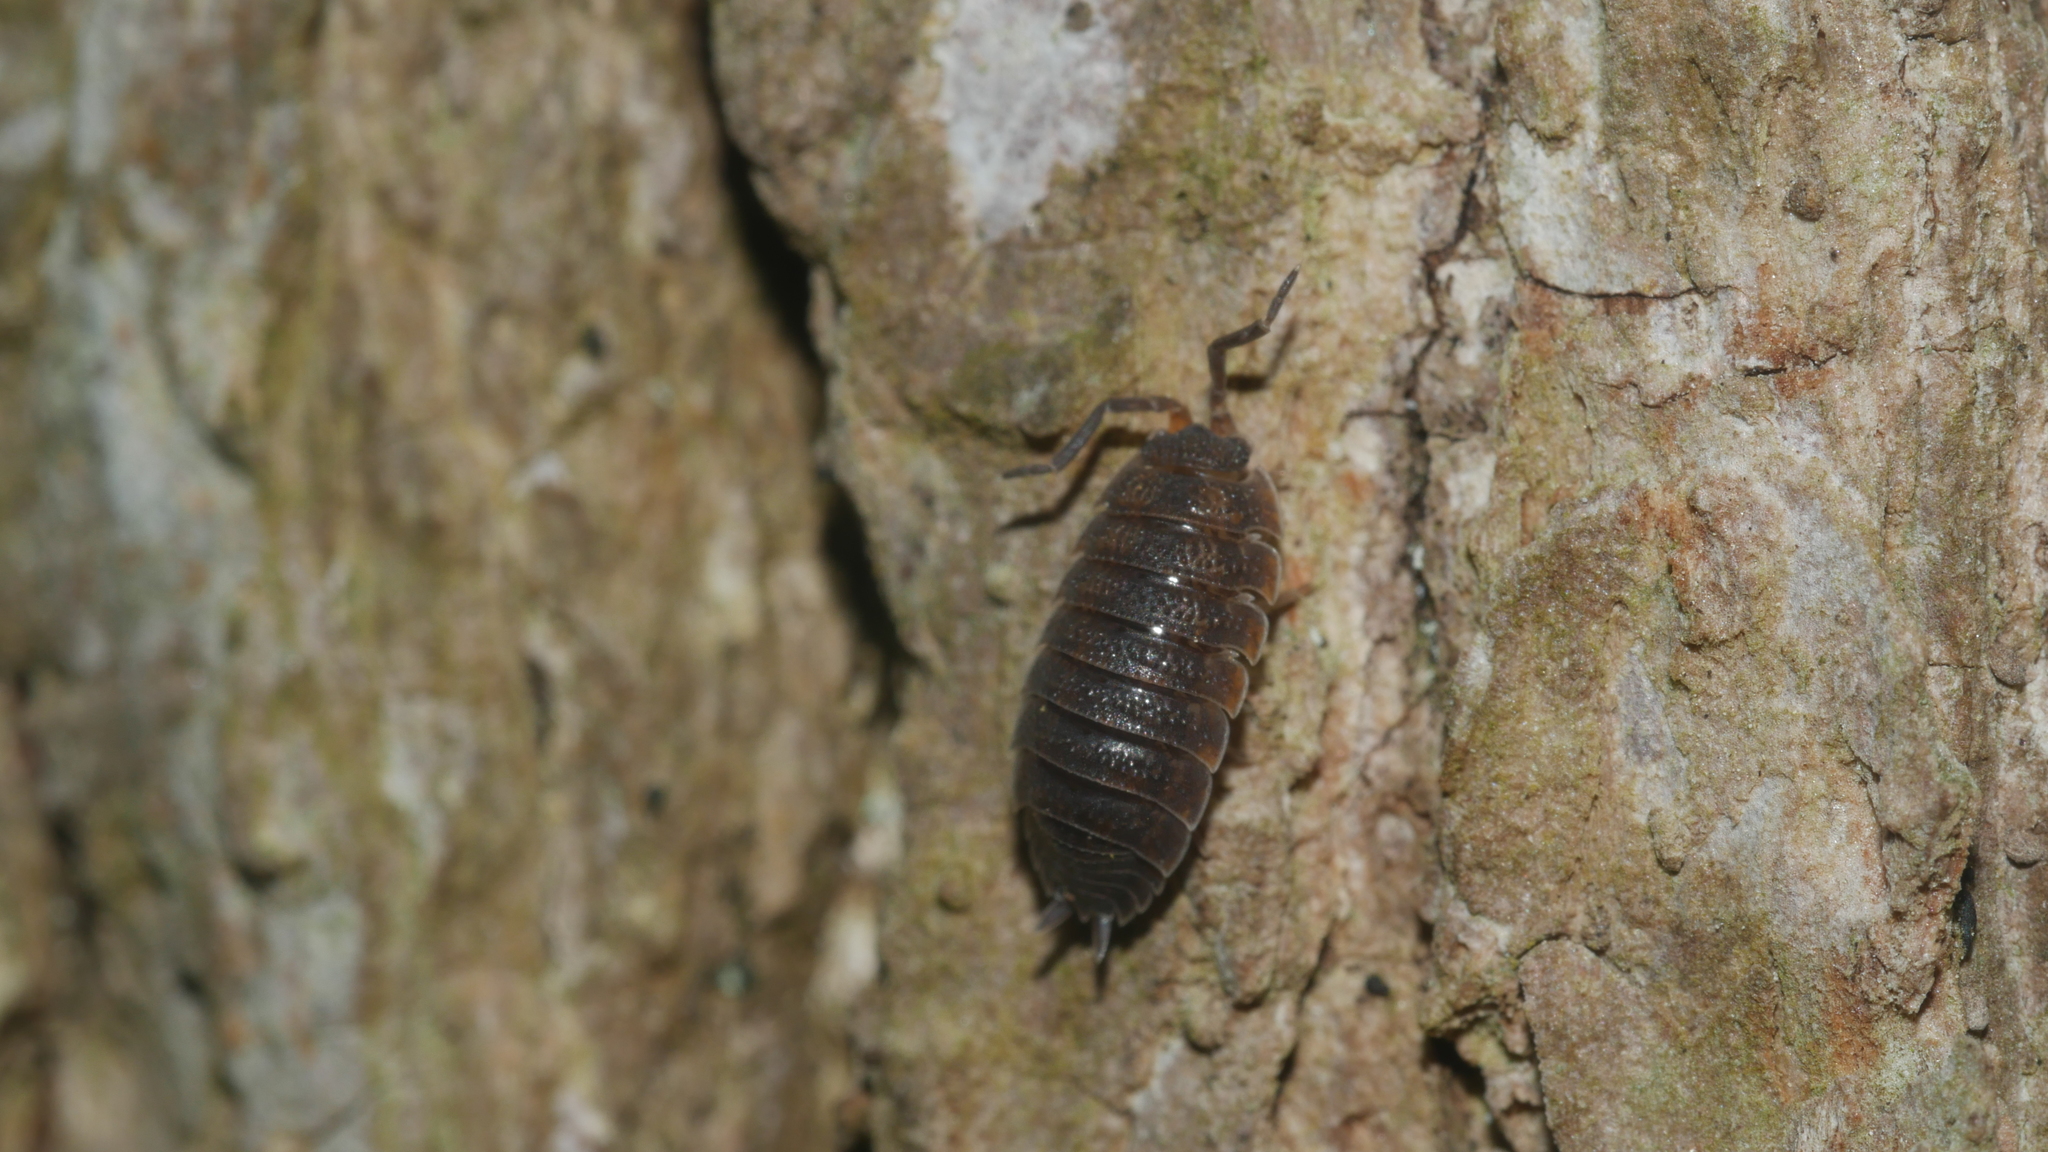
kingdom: Animalia
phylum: Arthropoda
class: Malacostraca
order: Isopoda
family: Porcellionidae
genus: Porcellio
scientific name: Porcellio scaber
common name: Common rough woodlouse
